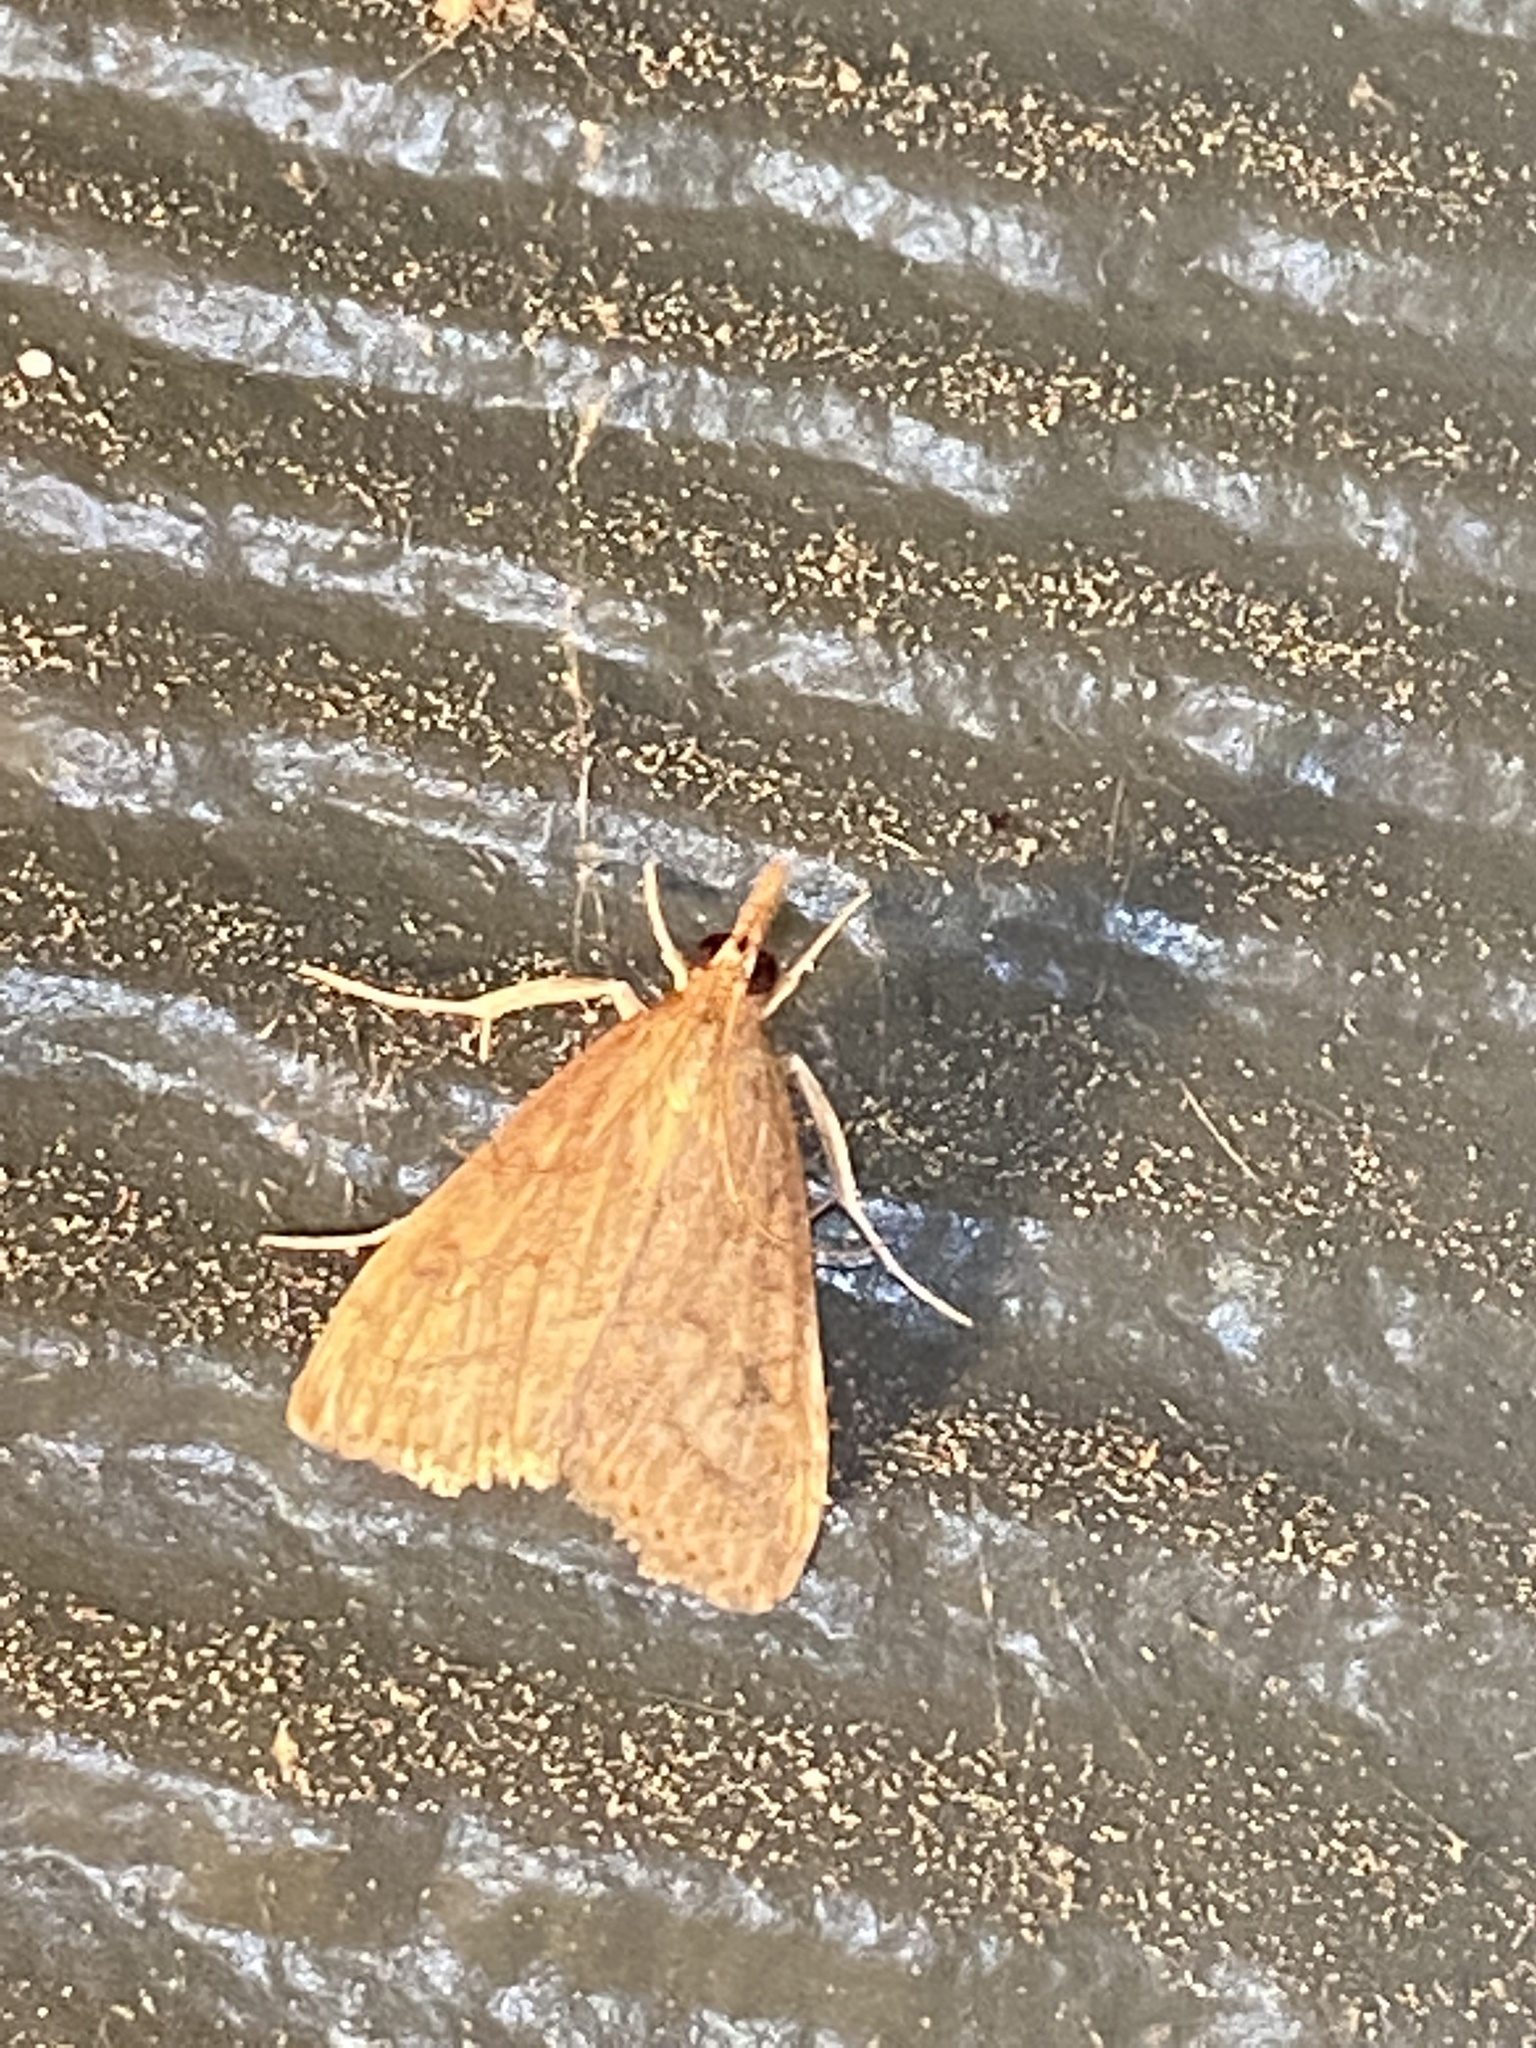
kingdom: Animalia
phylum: Arthropoda
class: Insecta
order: Lepidoptera
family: Crambidae
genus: Udea
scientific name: Udea rubigalis
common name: Celery leaftier moth
